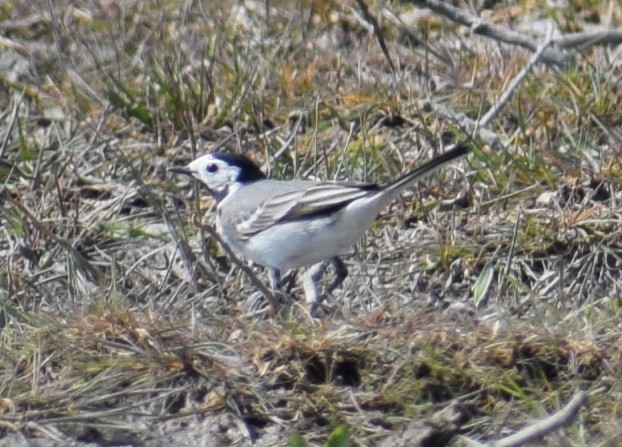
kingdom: Animalia
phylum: Chordata
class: Aves
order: Passeriformes
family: Motacillidae
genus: Motacilla
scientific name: Motacilla alba
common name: White wagtail
